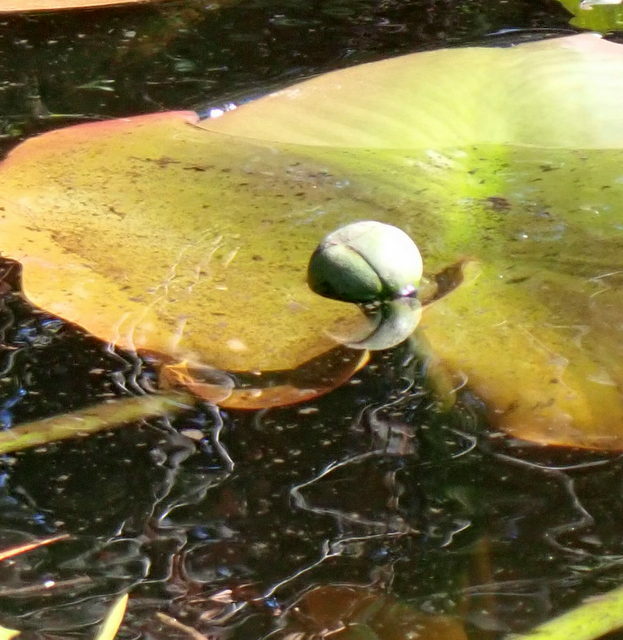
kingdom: Plantae
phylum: Tracheophyta
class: Magnoliopsida
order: Nymphaeales
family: Nymphaeaceae
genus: Nuphar
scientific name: Nuphar advena
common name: Spatter-dock
